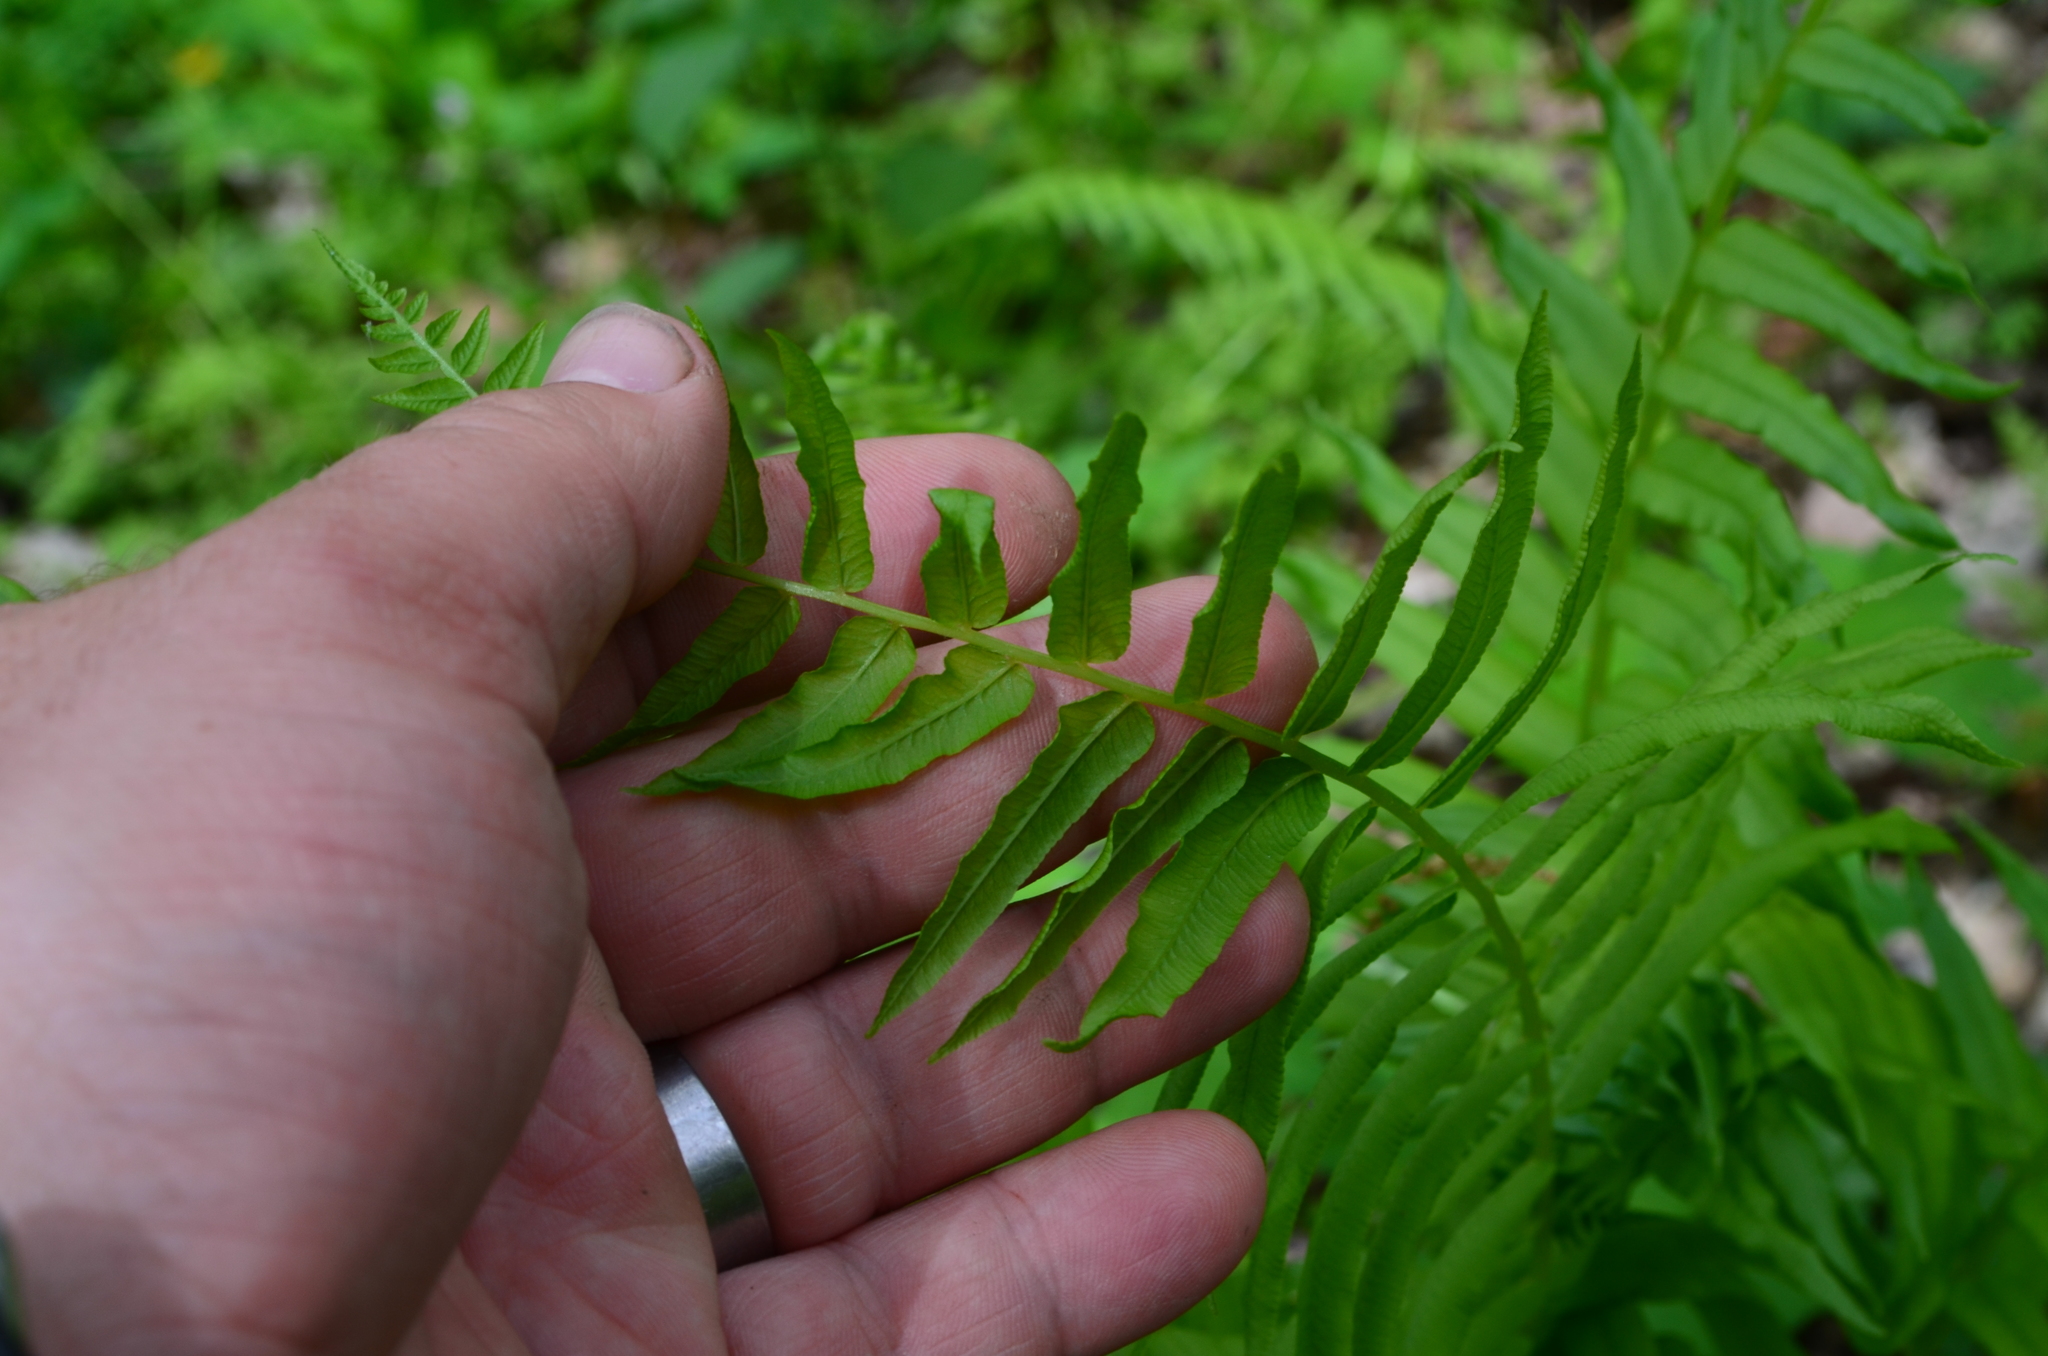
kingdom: Plantae
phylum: Tracheophyta
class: Polypodiopsida
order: Polypodiales
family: Diplaziopsidaceae
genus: Homalosorus
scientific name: Homalosorus pycnocarpos
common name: Glade fern
